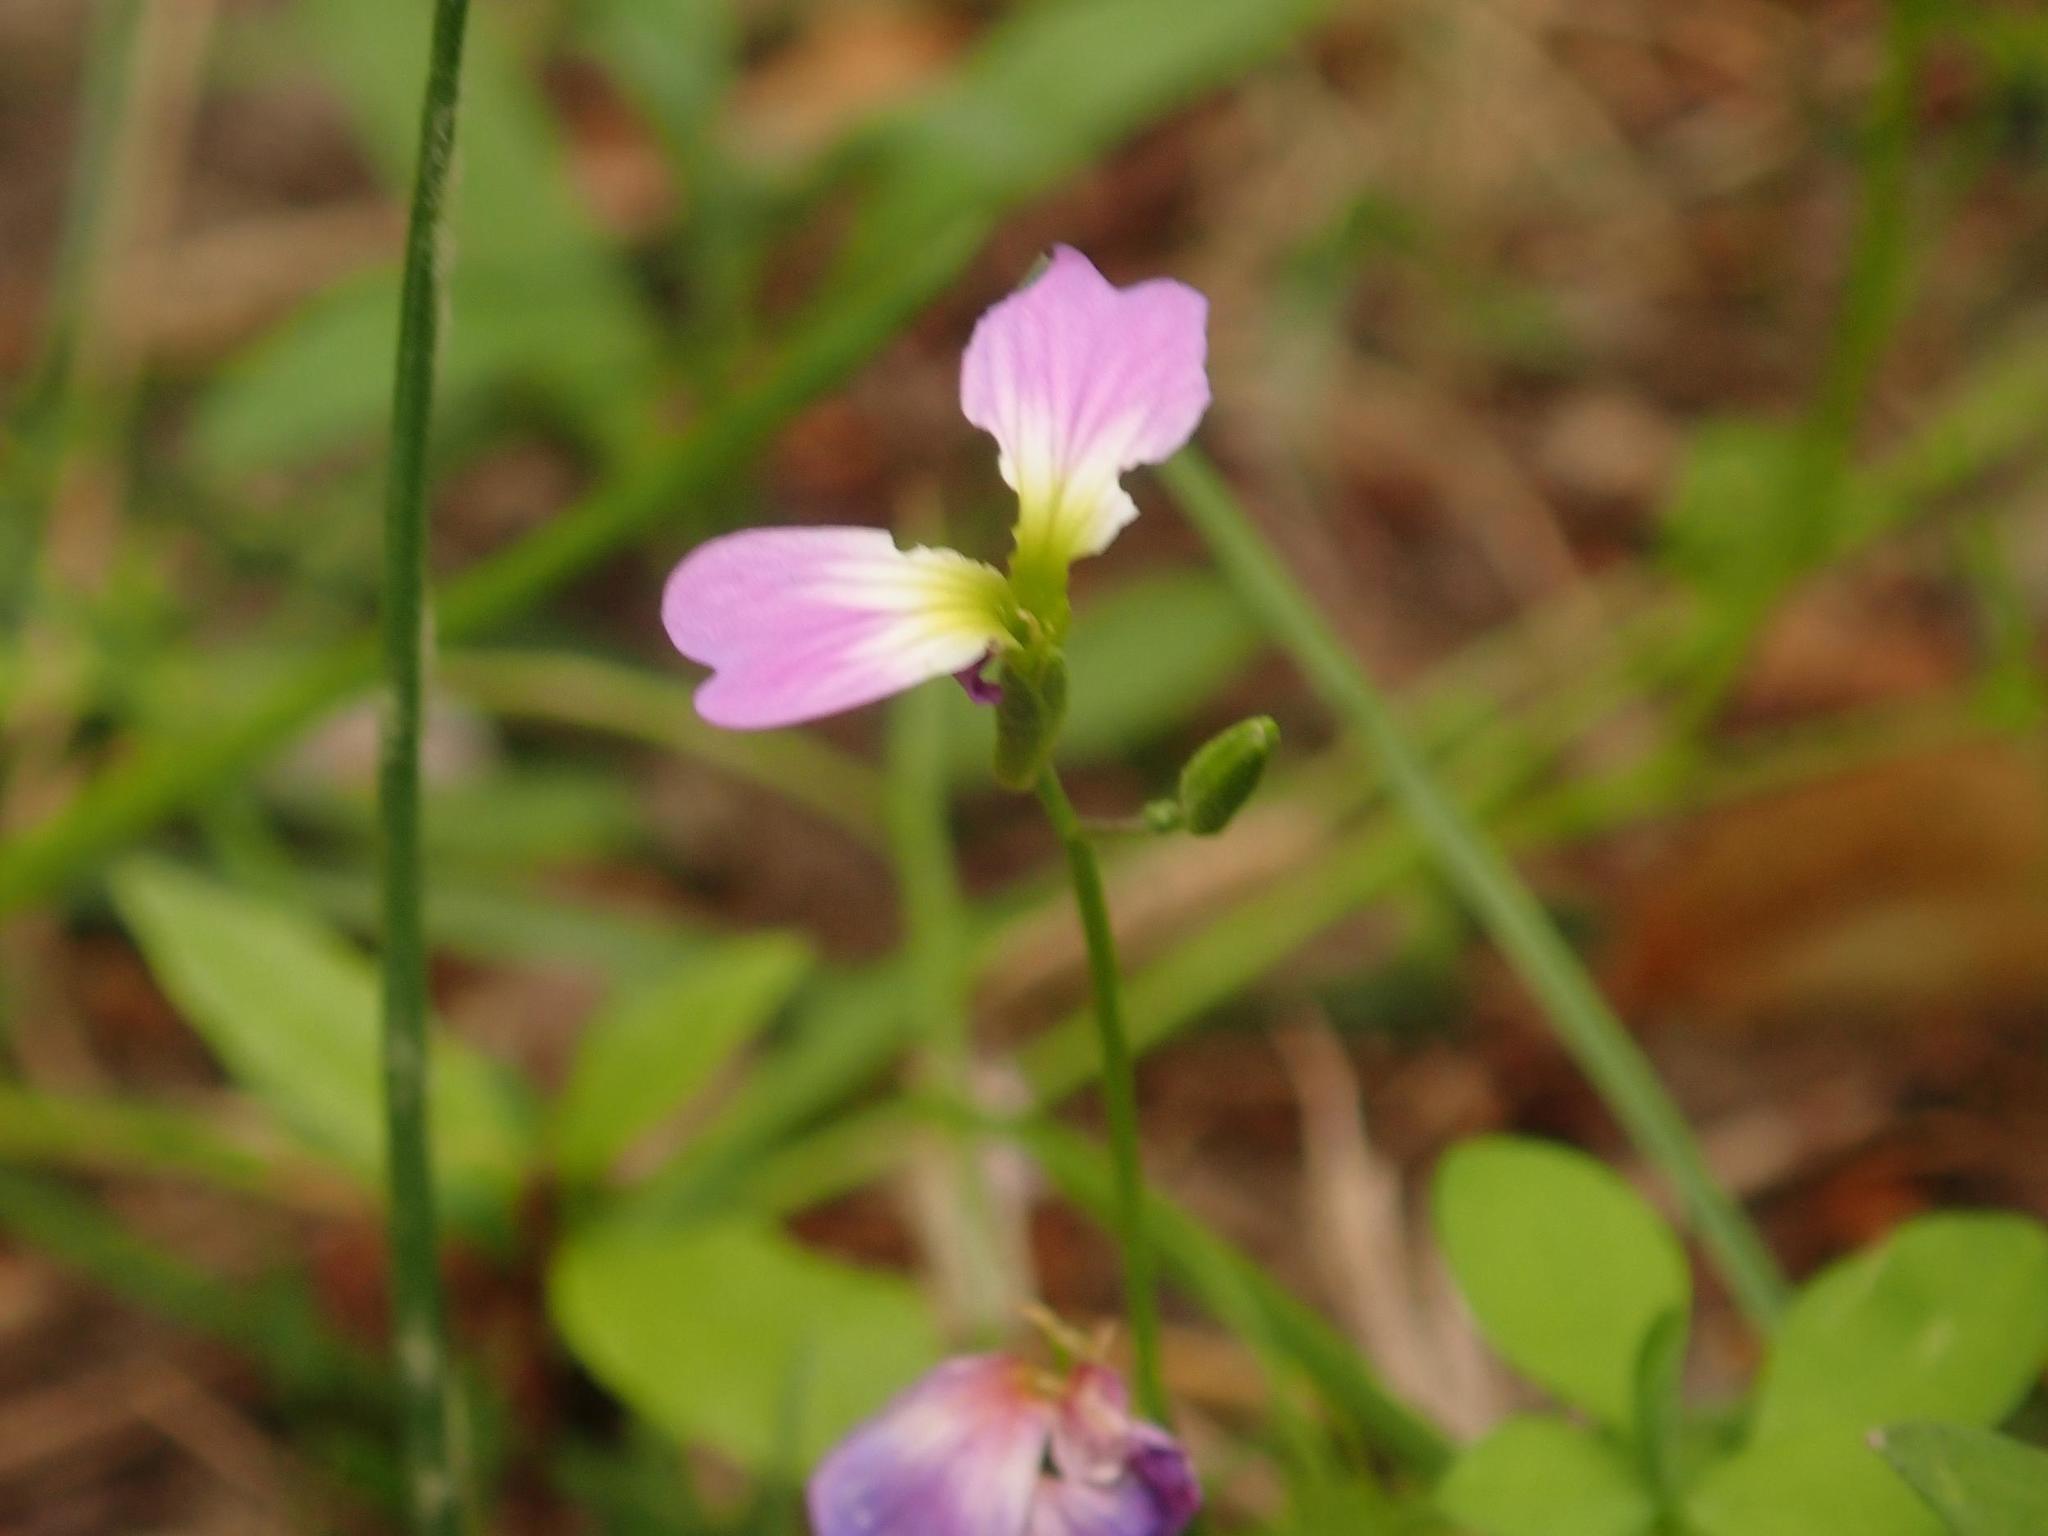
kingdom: Plantae
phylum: Tracheophyta
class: Magnoliopsida
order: Brassicales
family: Brassicaceae
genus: Malcolmia
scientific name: Malcolmia maritima
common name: Virginia stock
